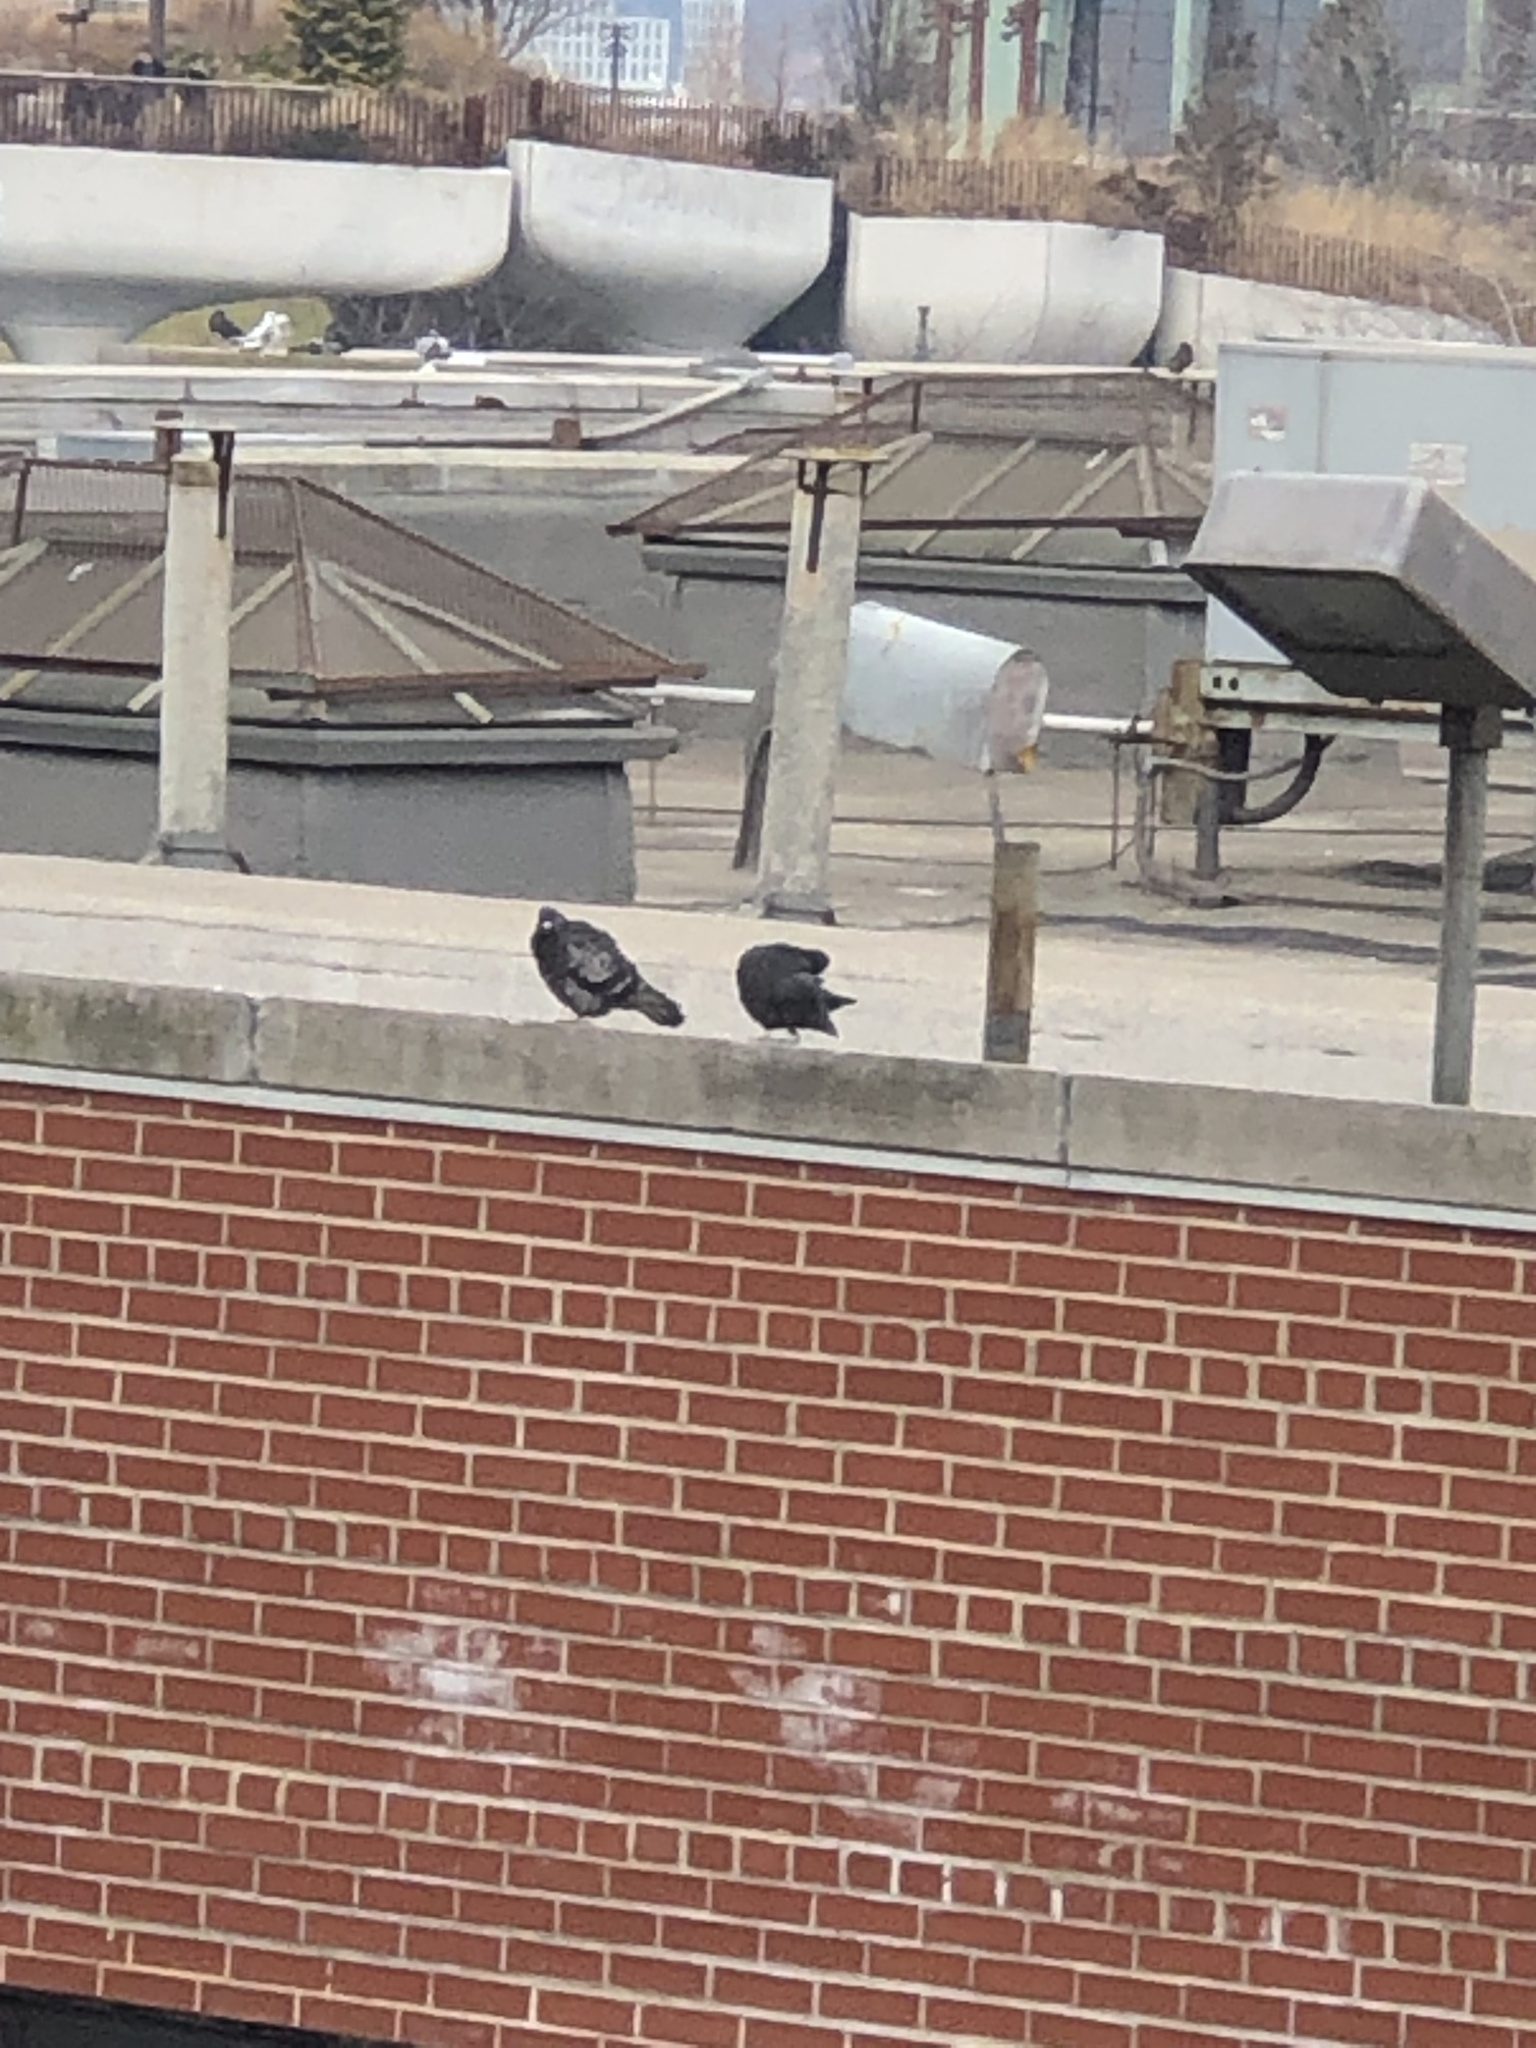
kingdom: Animalia
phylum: Chordata
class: Aves
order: Columbiformes
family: Columbidae
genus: Columba
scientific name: Columba livia
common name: Rock pigeon
